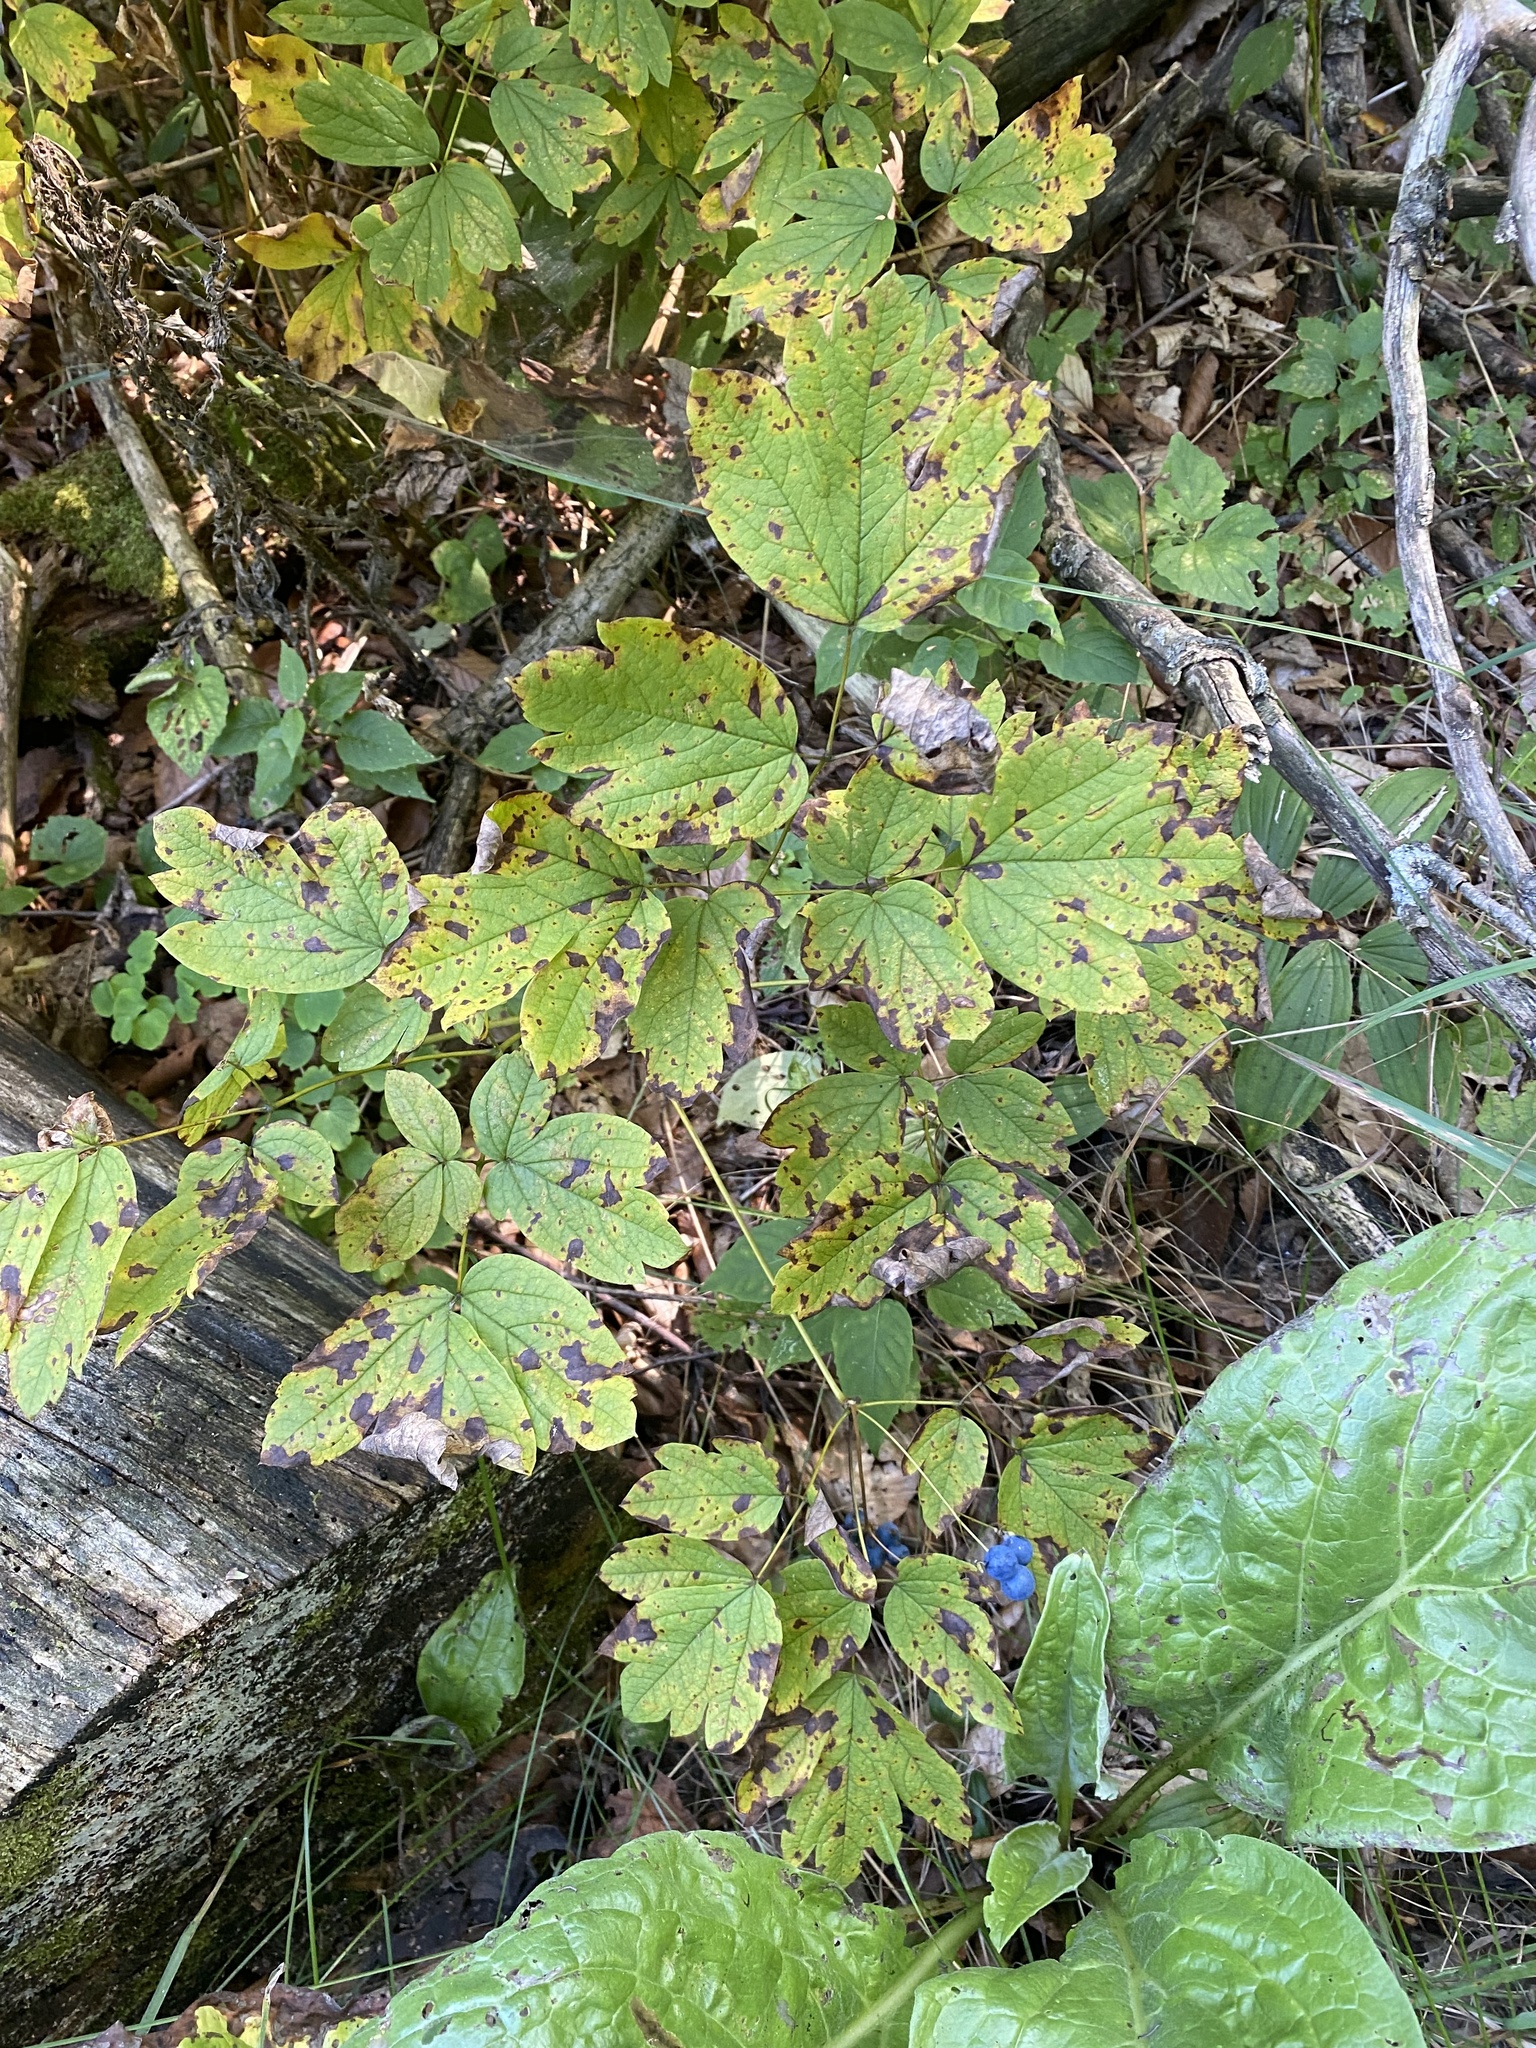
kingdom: Plantae
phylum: Tracheophyta
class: Magnoliopsida
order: Ranunculales
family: Berberidaceae
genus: Caulophyllum
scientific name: Caulophyllum thalictroides
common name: Blue cohosh
